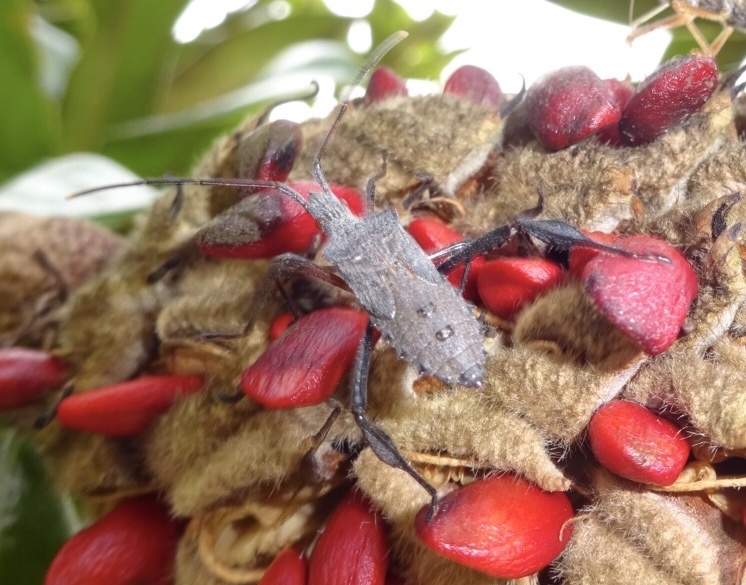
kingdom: Animalia
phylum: Arthropoda
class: Insecta
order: Hemiptera
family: Coreidae
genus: Leptoglossus
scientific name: Leptoglossus fulvicornis
